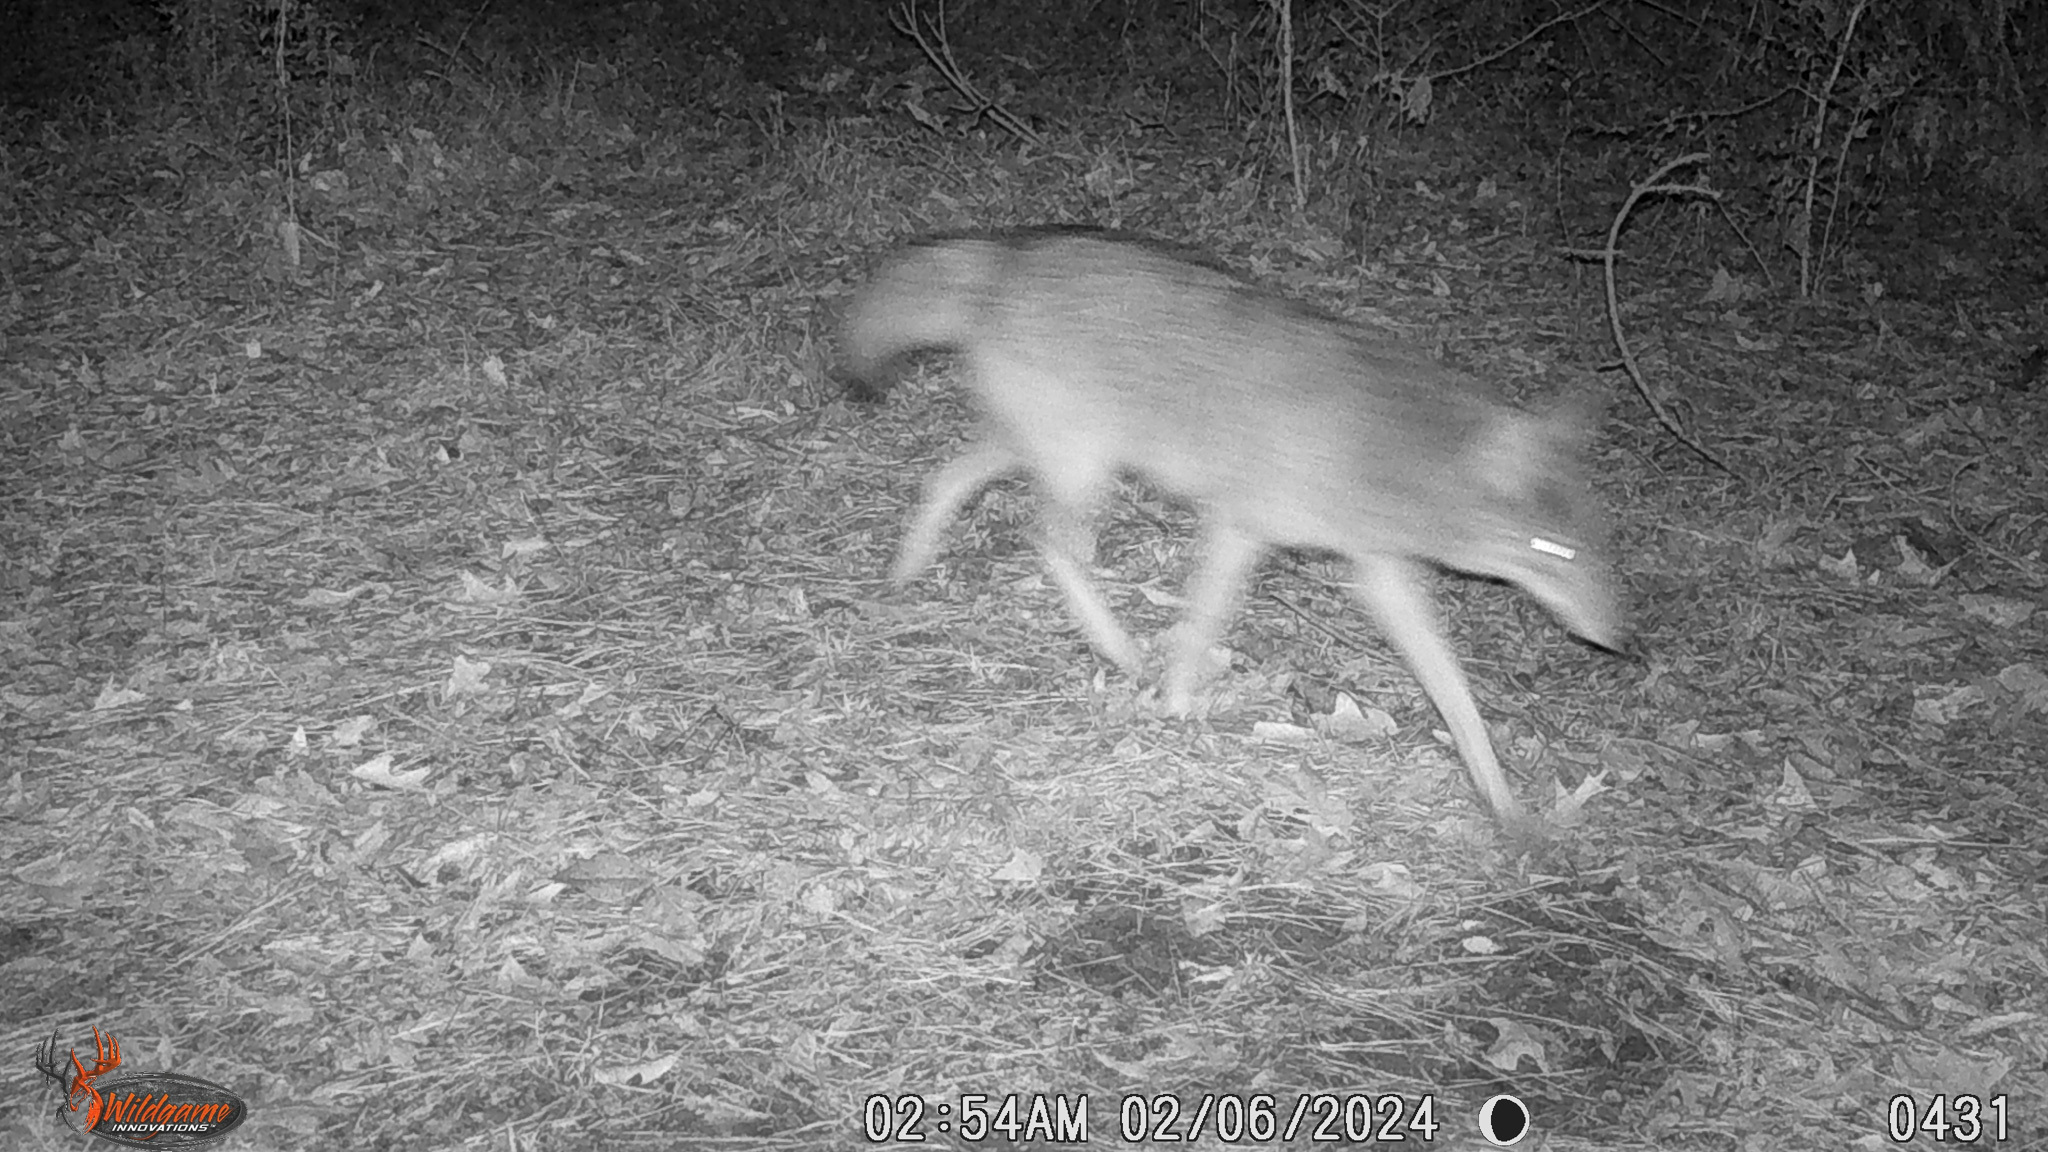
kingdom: Animalia
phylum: Chordata
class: Mammalia
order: Carnivora
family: Canidae
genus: Canis
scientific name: Canis latrans
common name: Coyote
